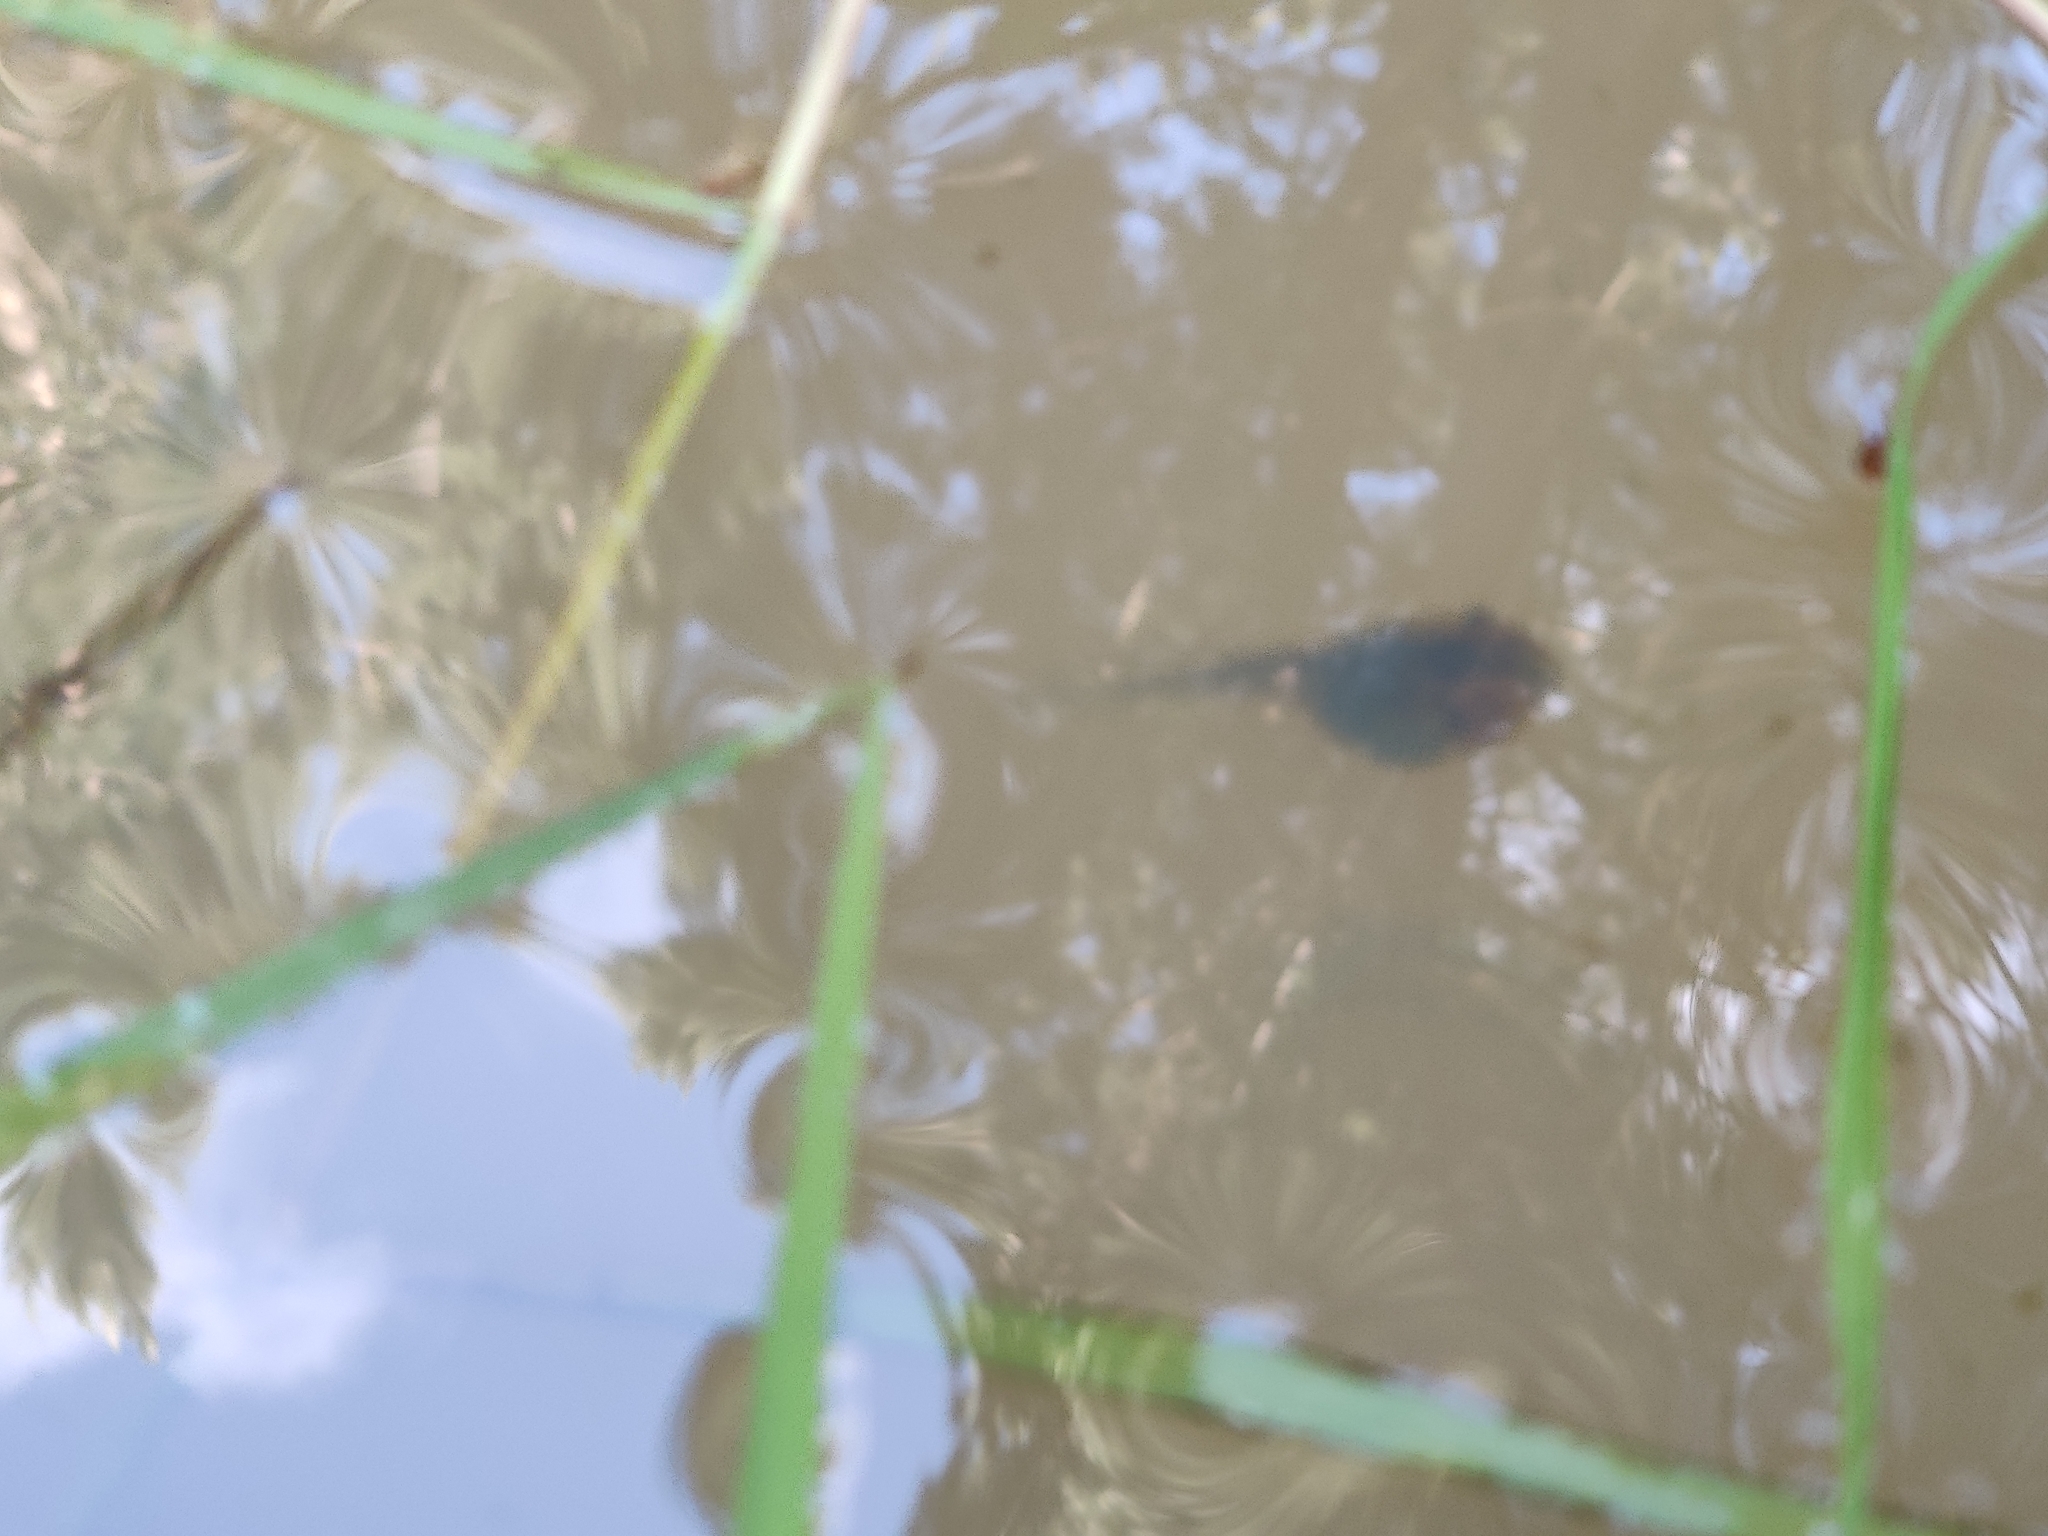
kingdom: Animalia
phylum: Chordata
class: Amphibia
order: Anura
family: Pelodryadidae
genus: Litoria
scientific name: Litoria ewingii
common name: Southern brown tree frog
